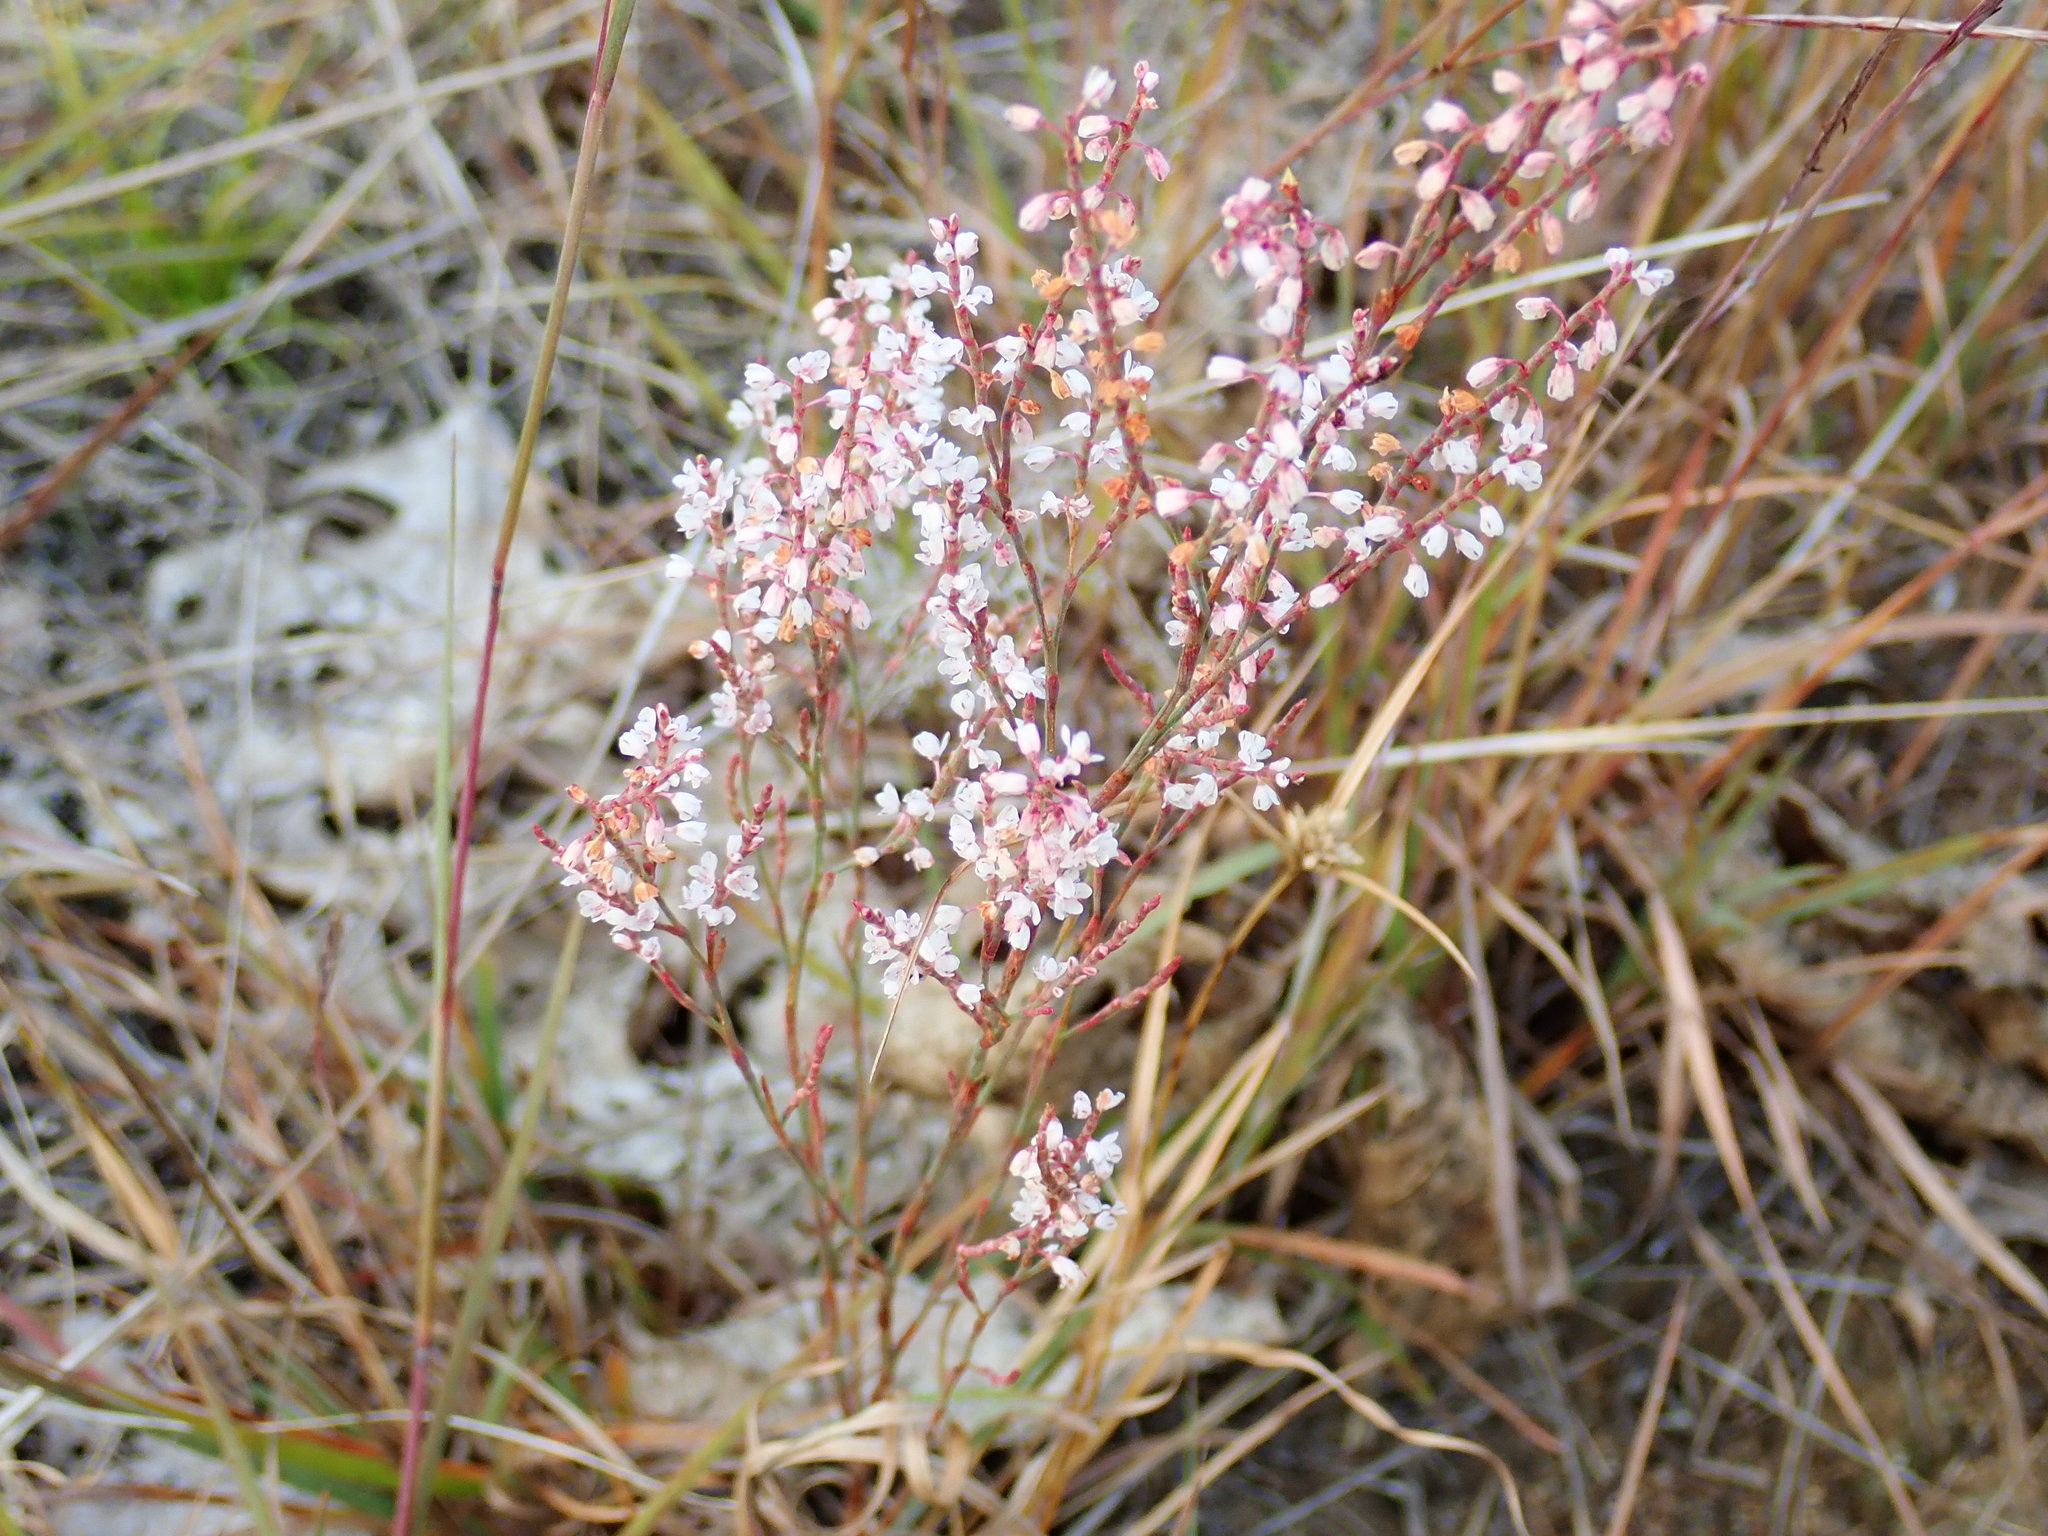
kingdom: Plantae
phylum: Tracheophyta
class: Magnoliopsida
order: Caryophyllales
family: Polygonaceae
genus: Polygonella
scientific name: Polygonella articulata
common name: Coastal jointweed
